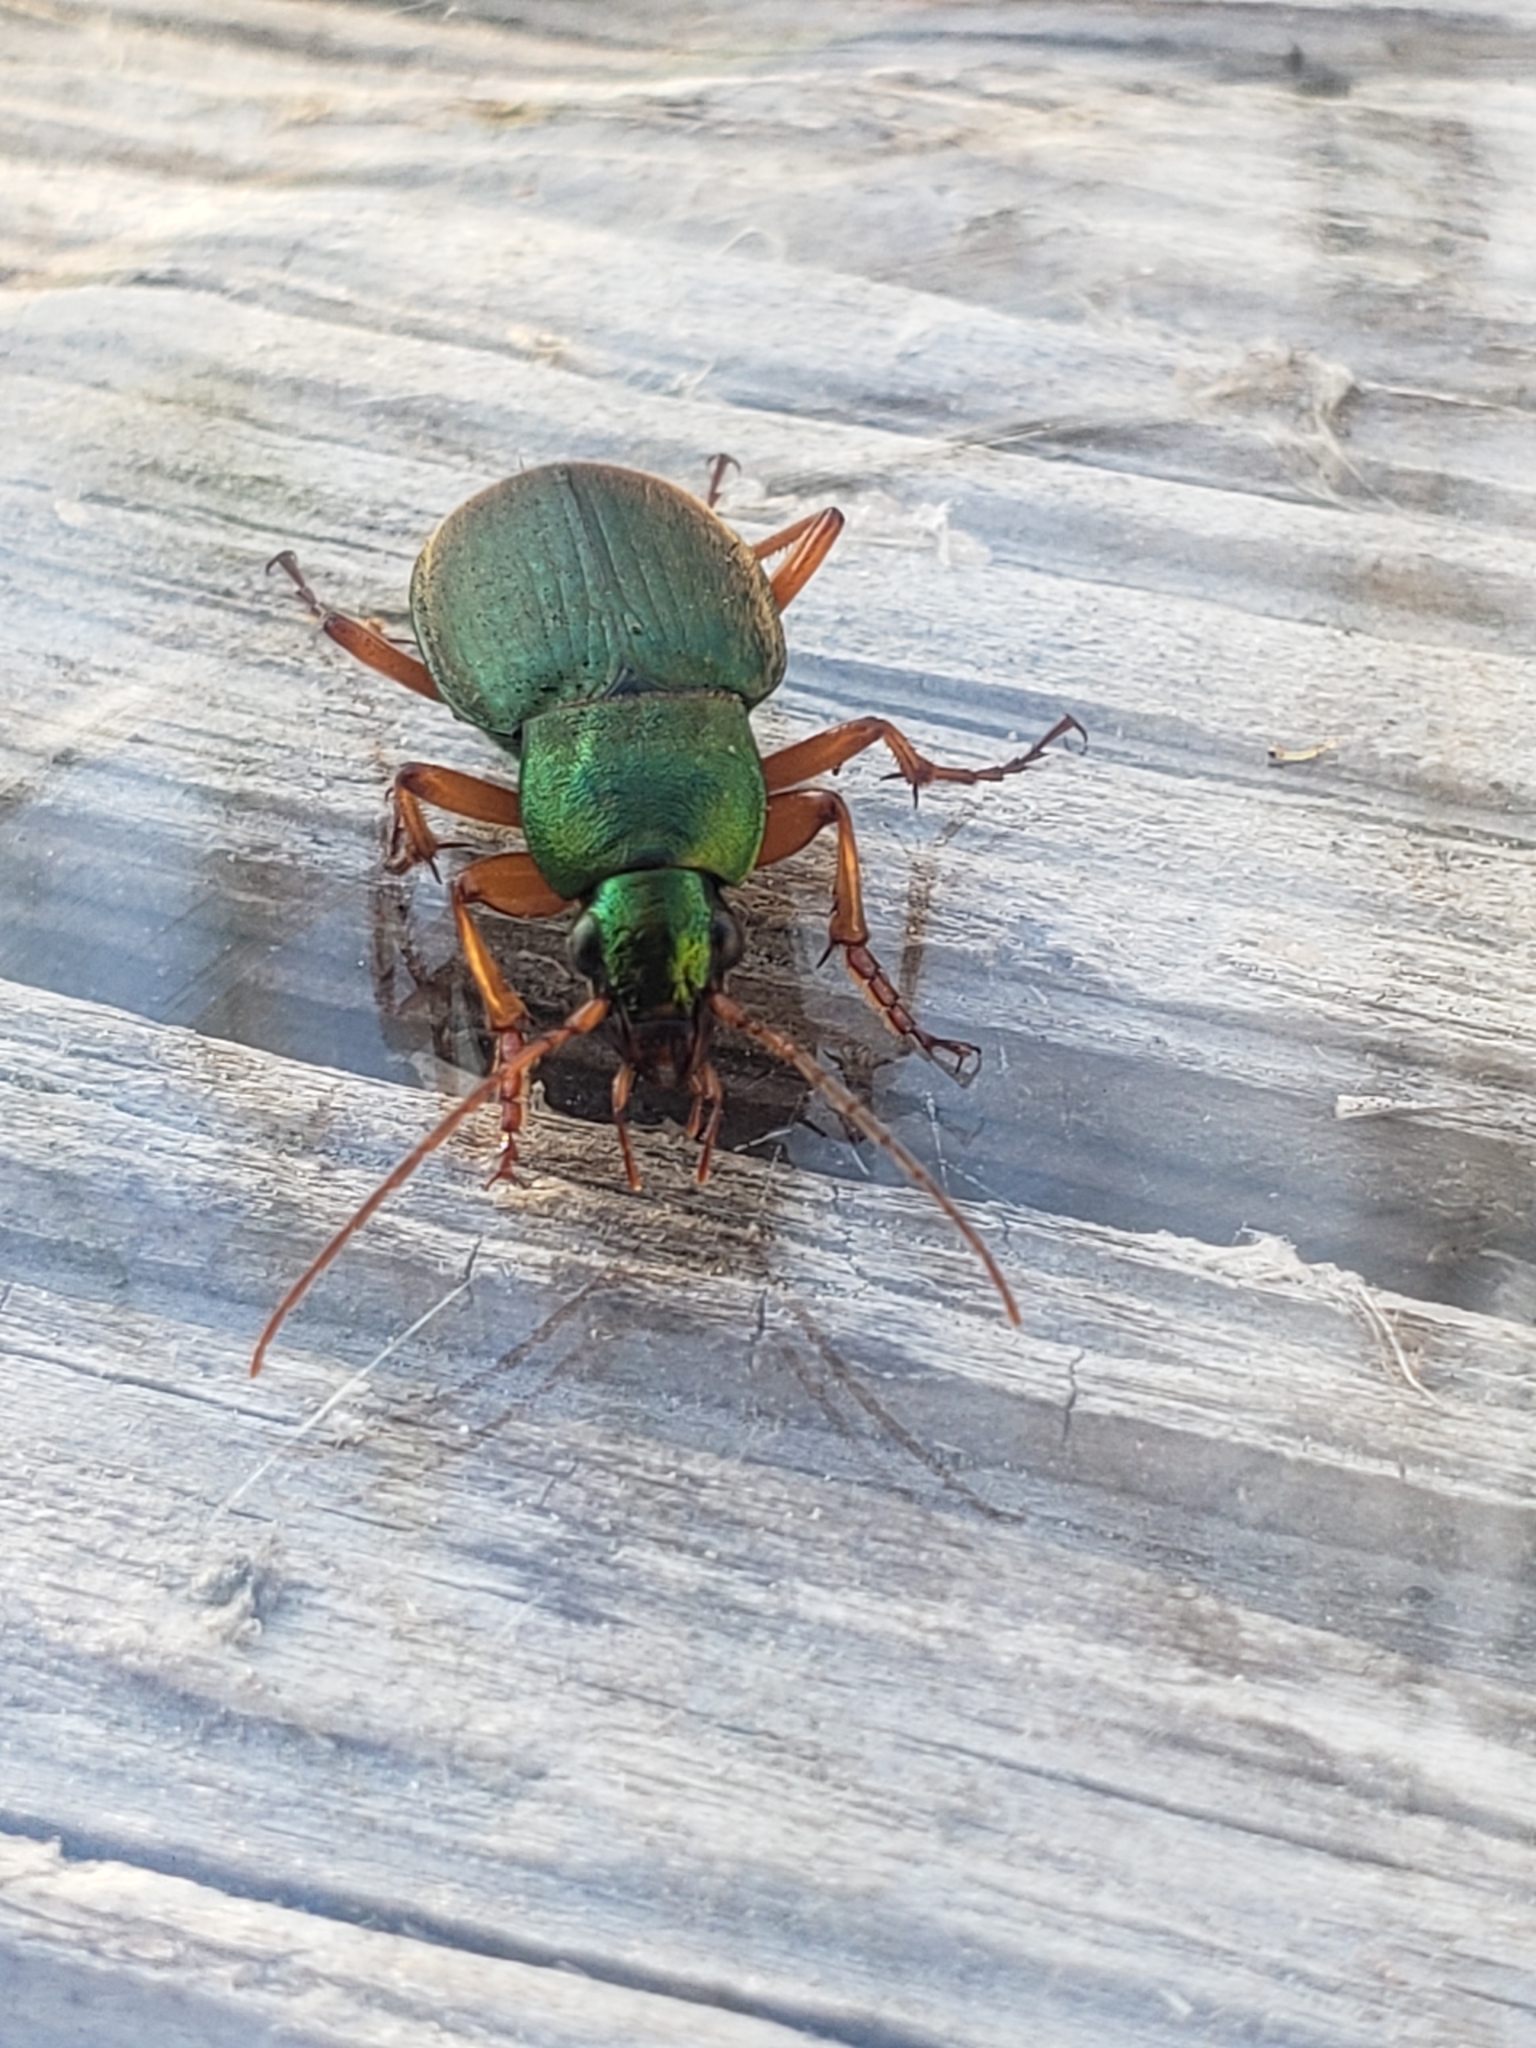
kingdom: Animalia
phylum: Arthropoda
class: Insecta
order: Coleoptera
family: Carabidae
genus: Chlaenius
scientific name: Chlaenius sericeus
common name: Green pubescent ground beetle
